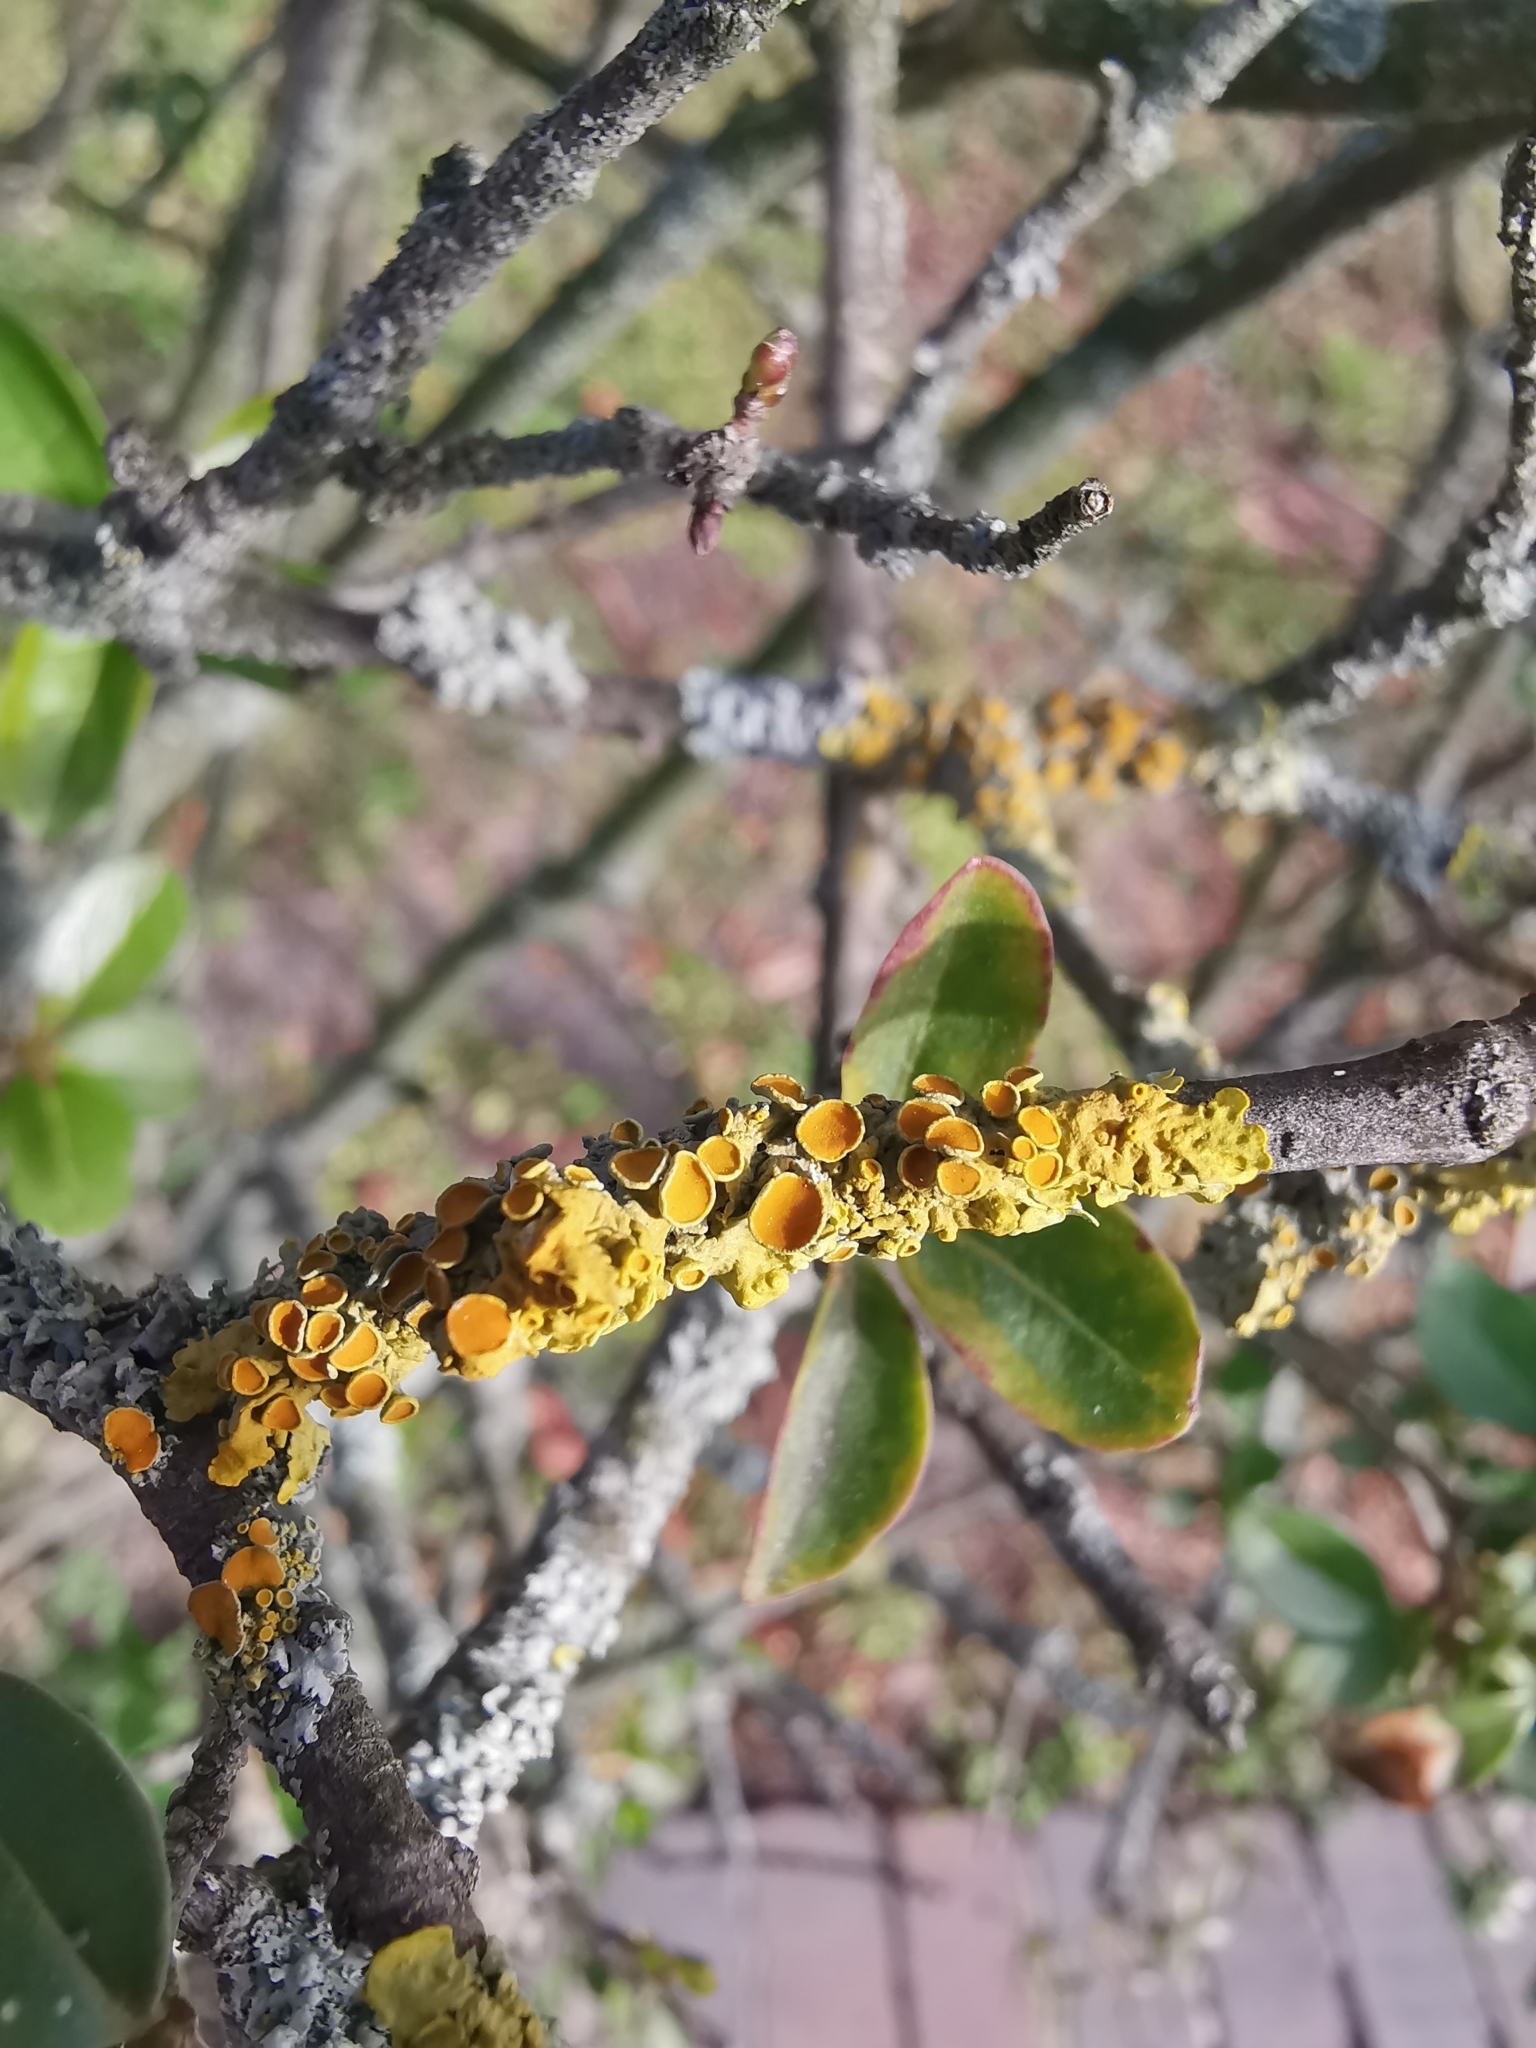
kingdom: Fungi
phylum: Ascomycota
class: Lecanoromycetes
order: Teloschistales
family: Teloschistaceae
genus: Xanthoria
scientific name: Xanthoria parietina
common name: Common orange lichen
